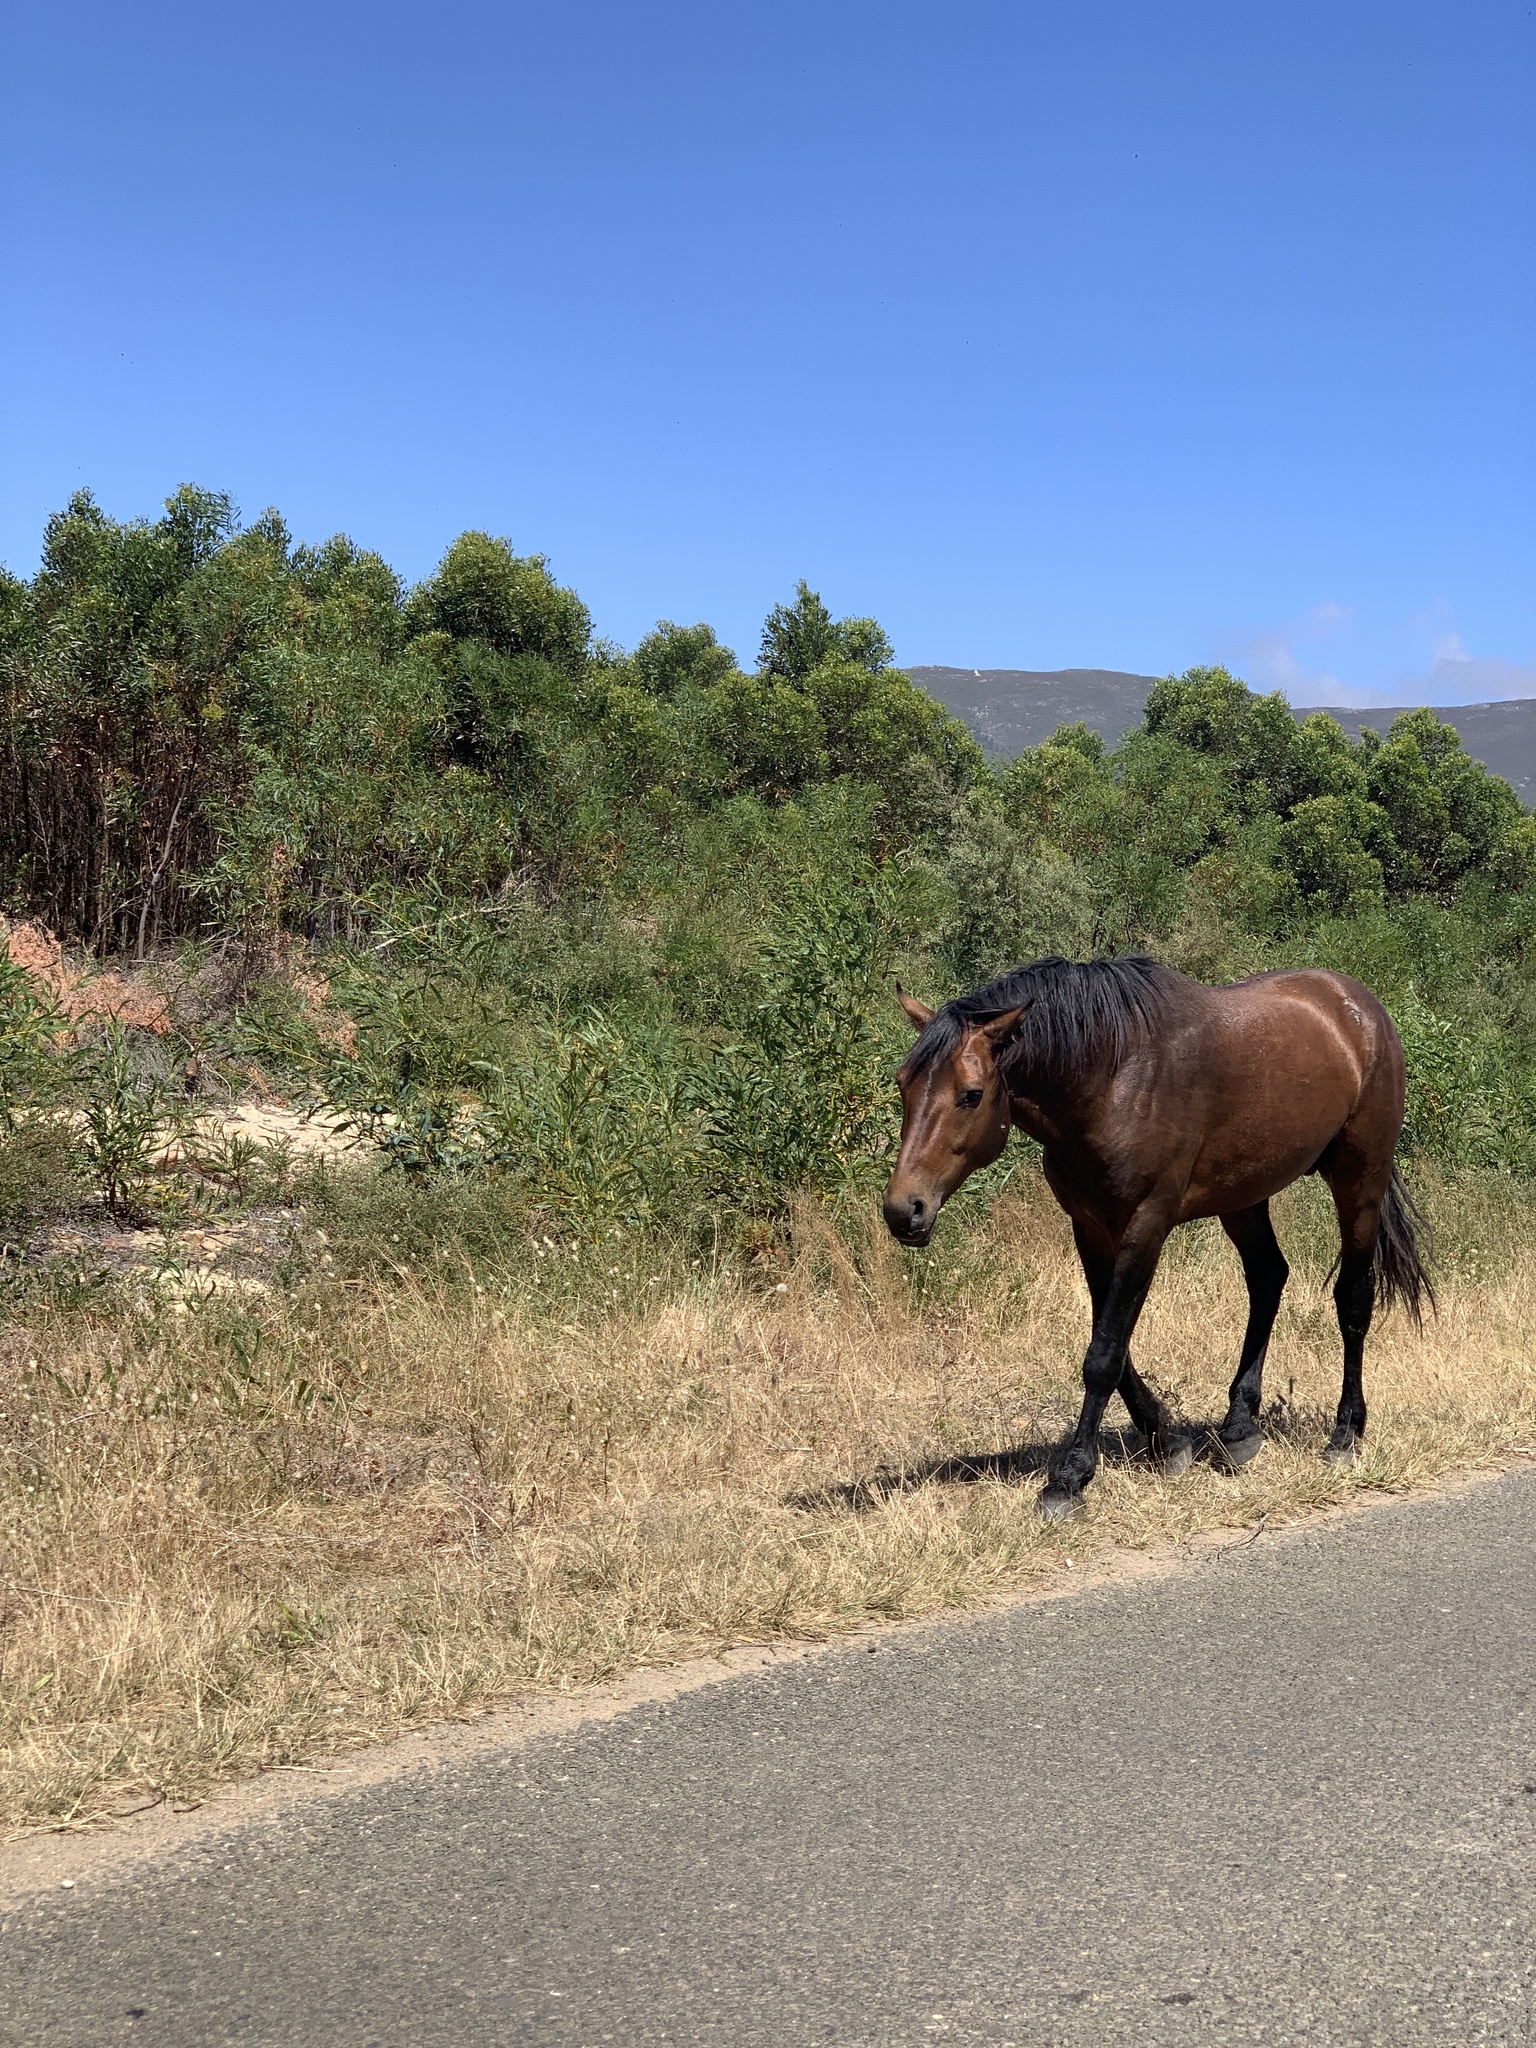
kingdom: Animalia
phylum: Chordata
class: Mammalia
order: Perissodactyla
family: Equidae
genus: Equus
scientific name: Equus caballus
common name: Horse
